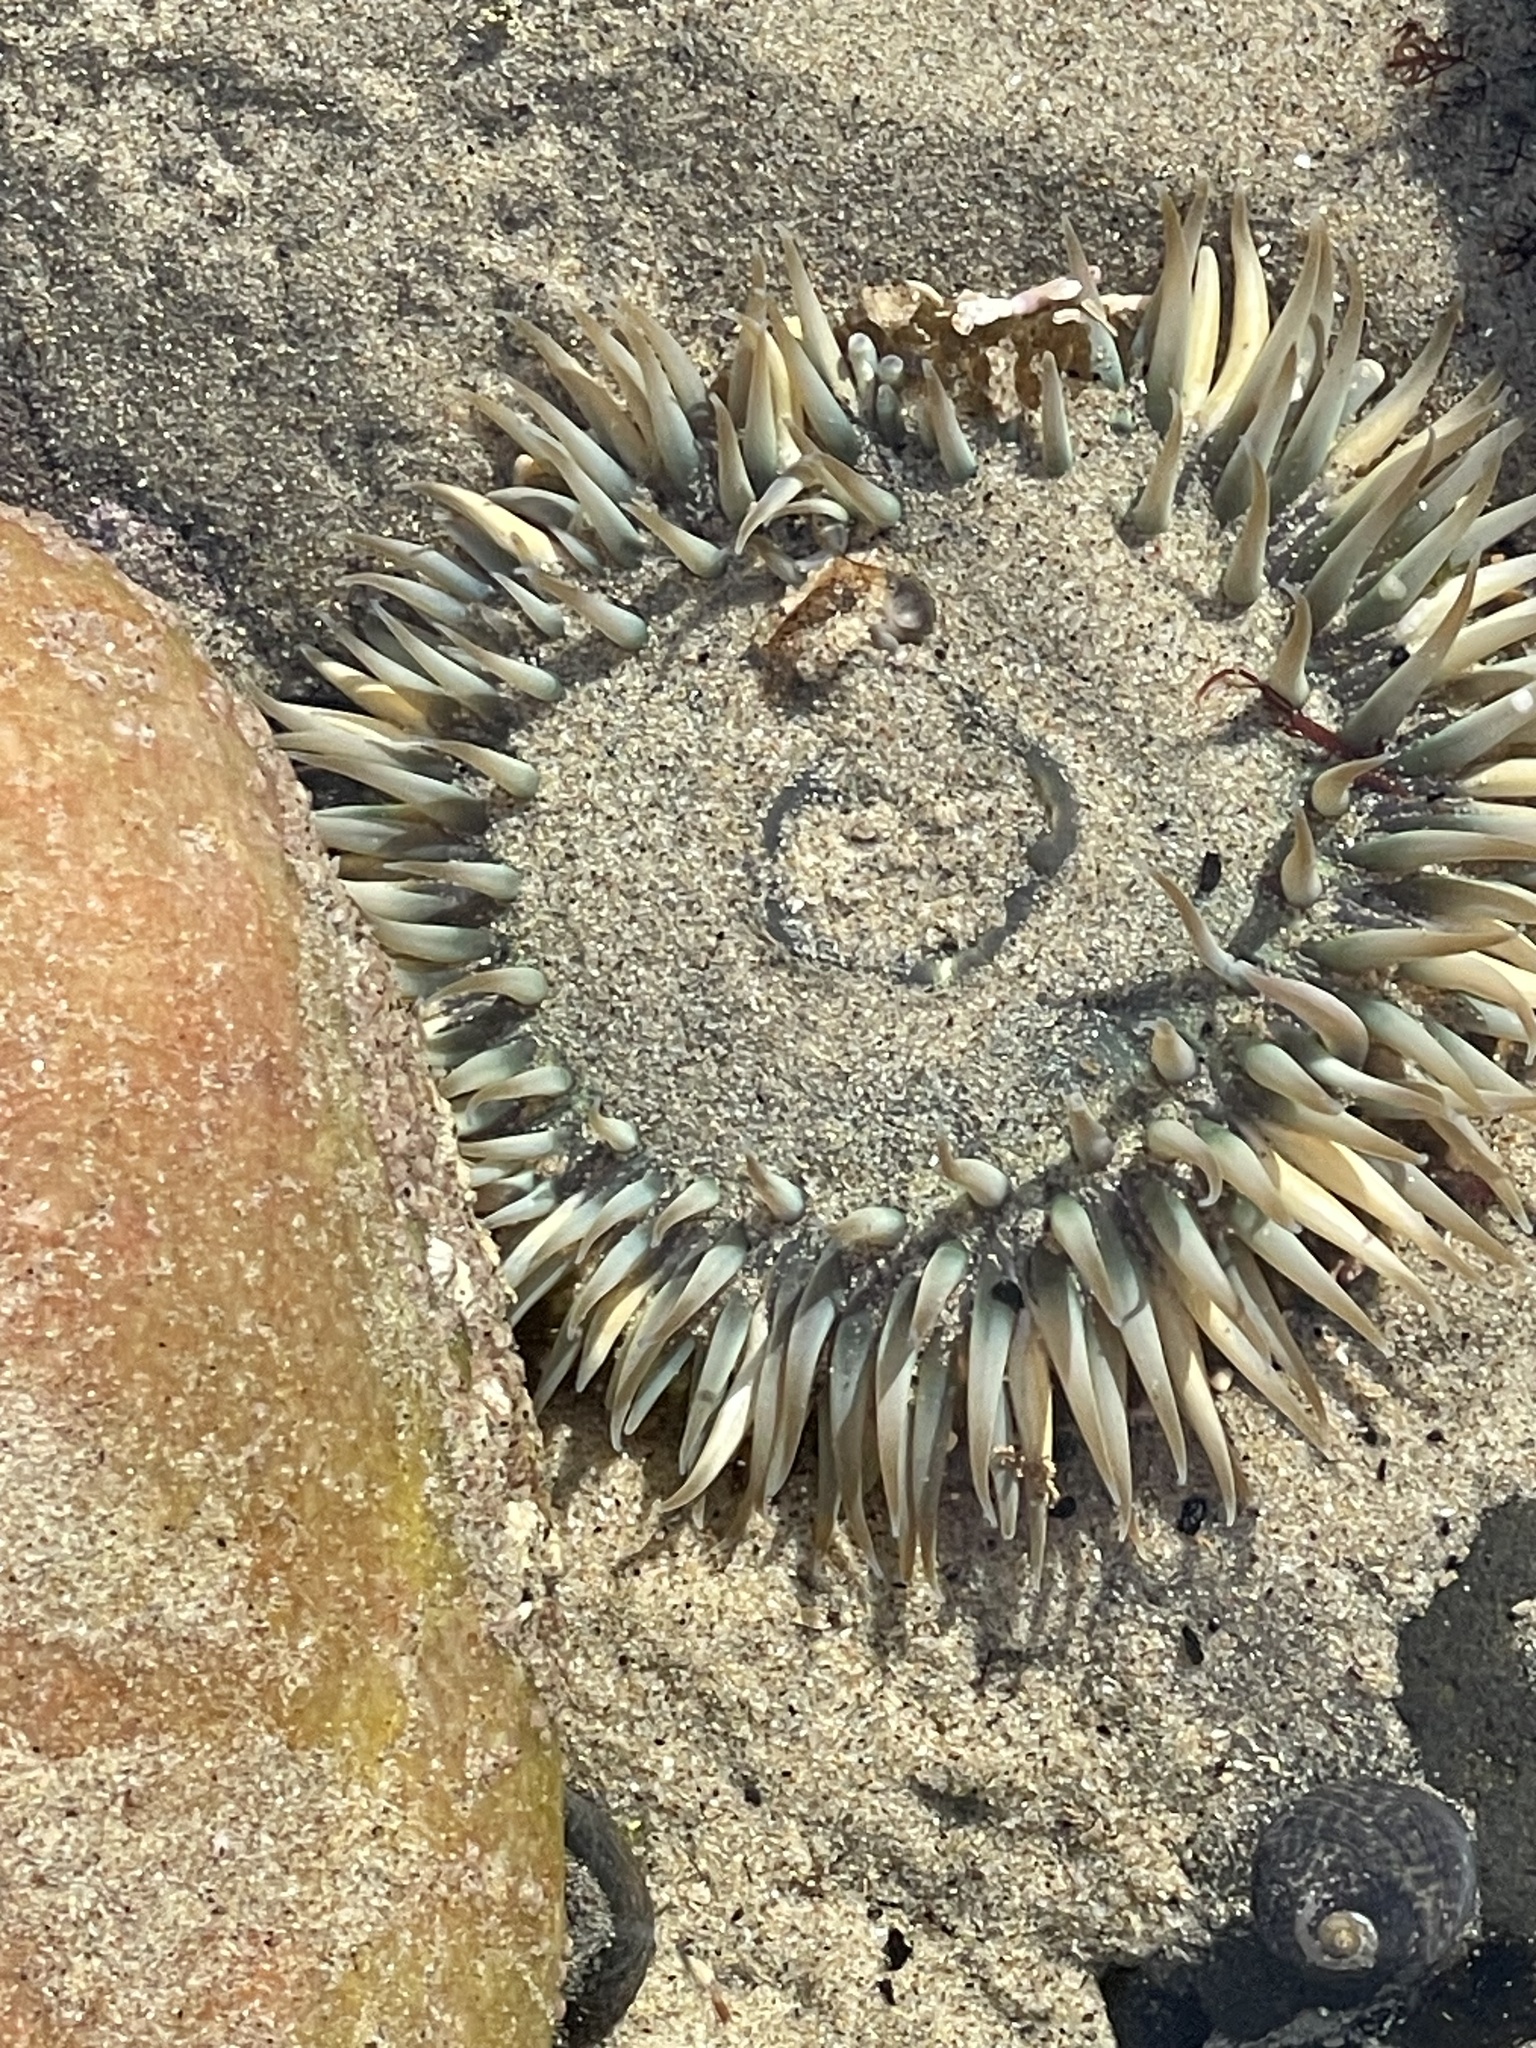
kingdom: Animalia
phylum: Cnidaria
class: Anthozoa
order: Actiniaria
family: Actiniidae
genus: Anthopleura
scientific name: Anthopleura sola
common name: Sun anemone
